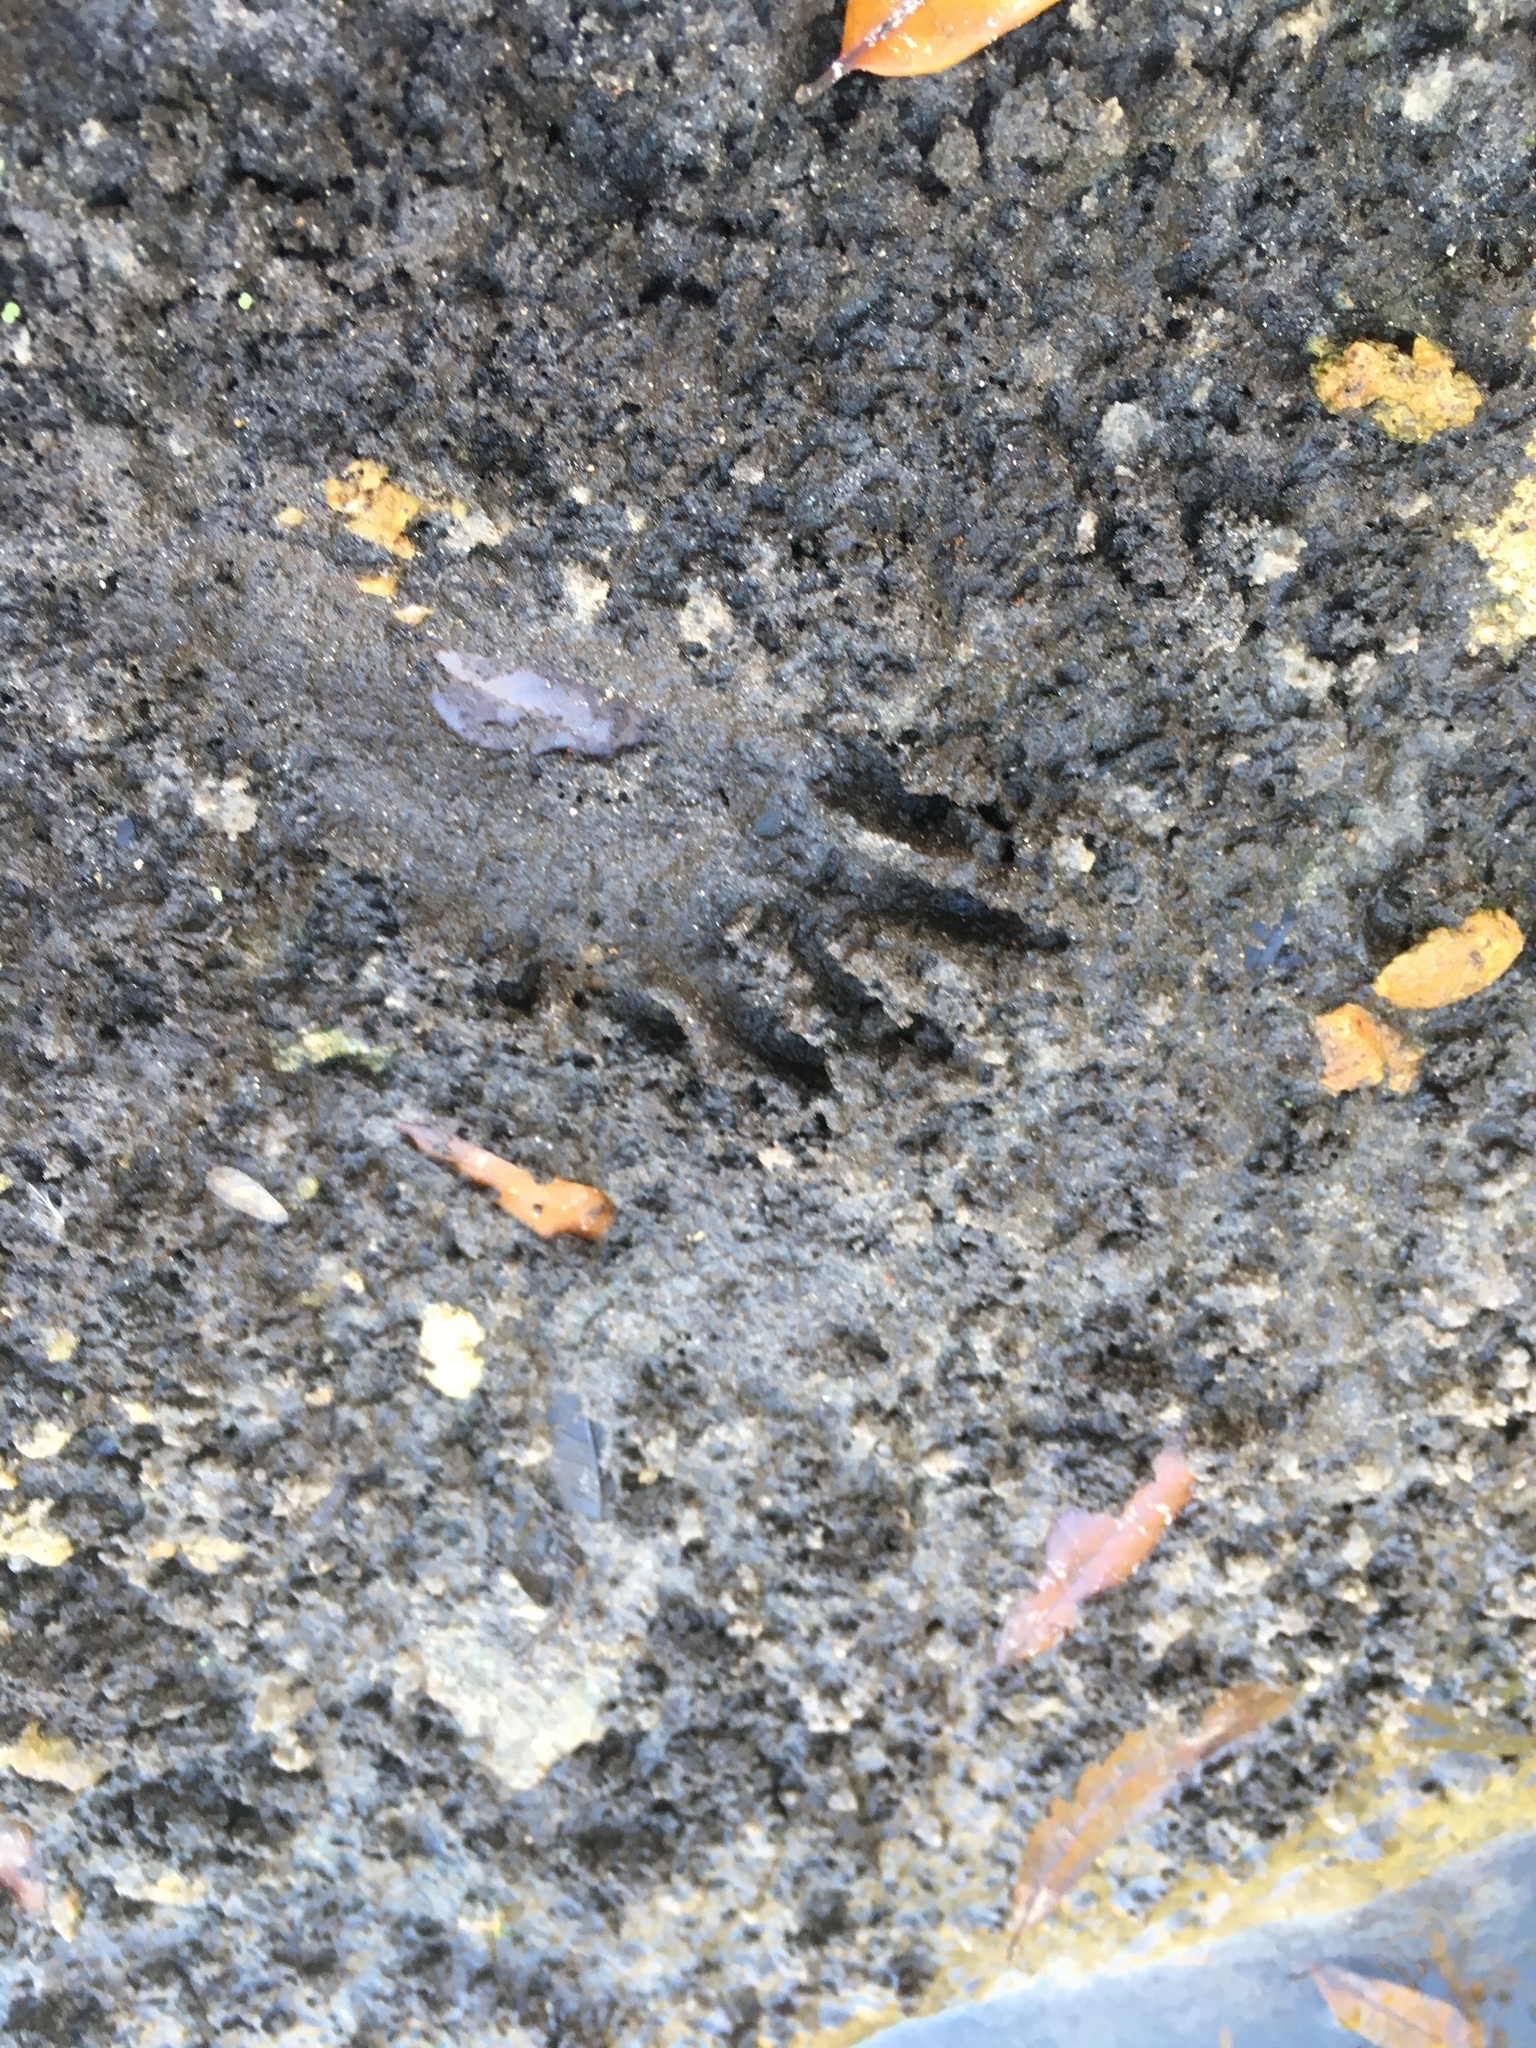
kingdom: Animalia
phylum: Chordata
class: Mammalia
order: Carnivora
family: Procyonidae
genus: Procyon
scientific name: Procyon lotor
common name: Raccoon
